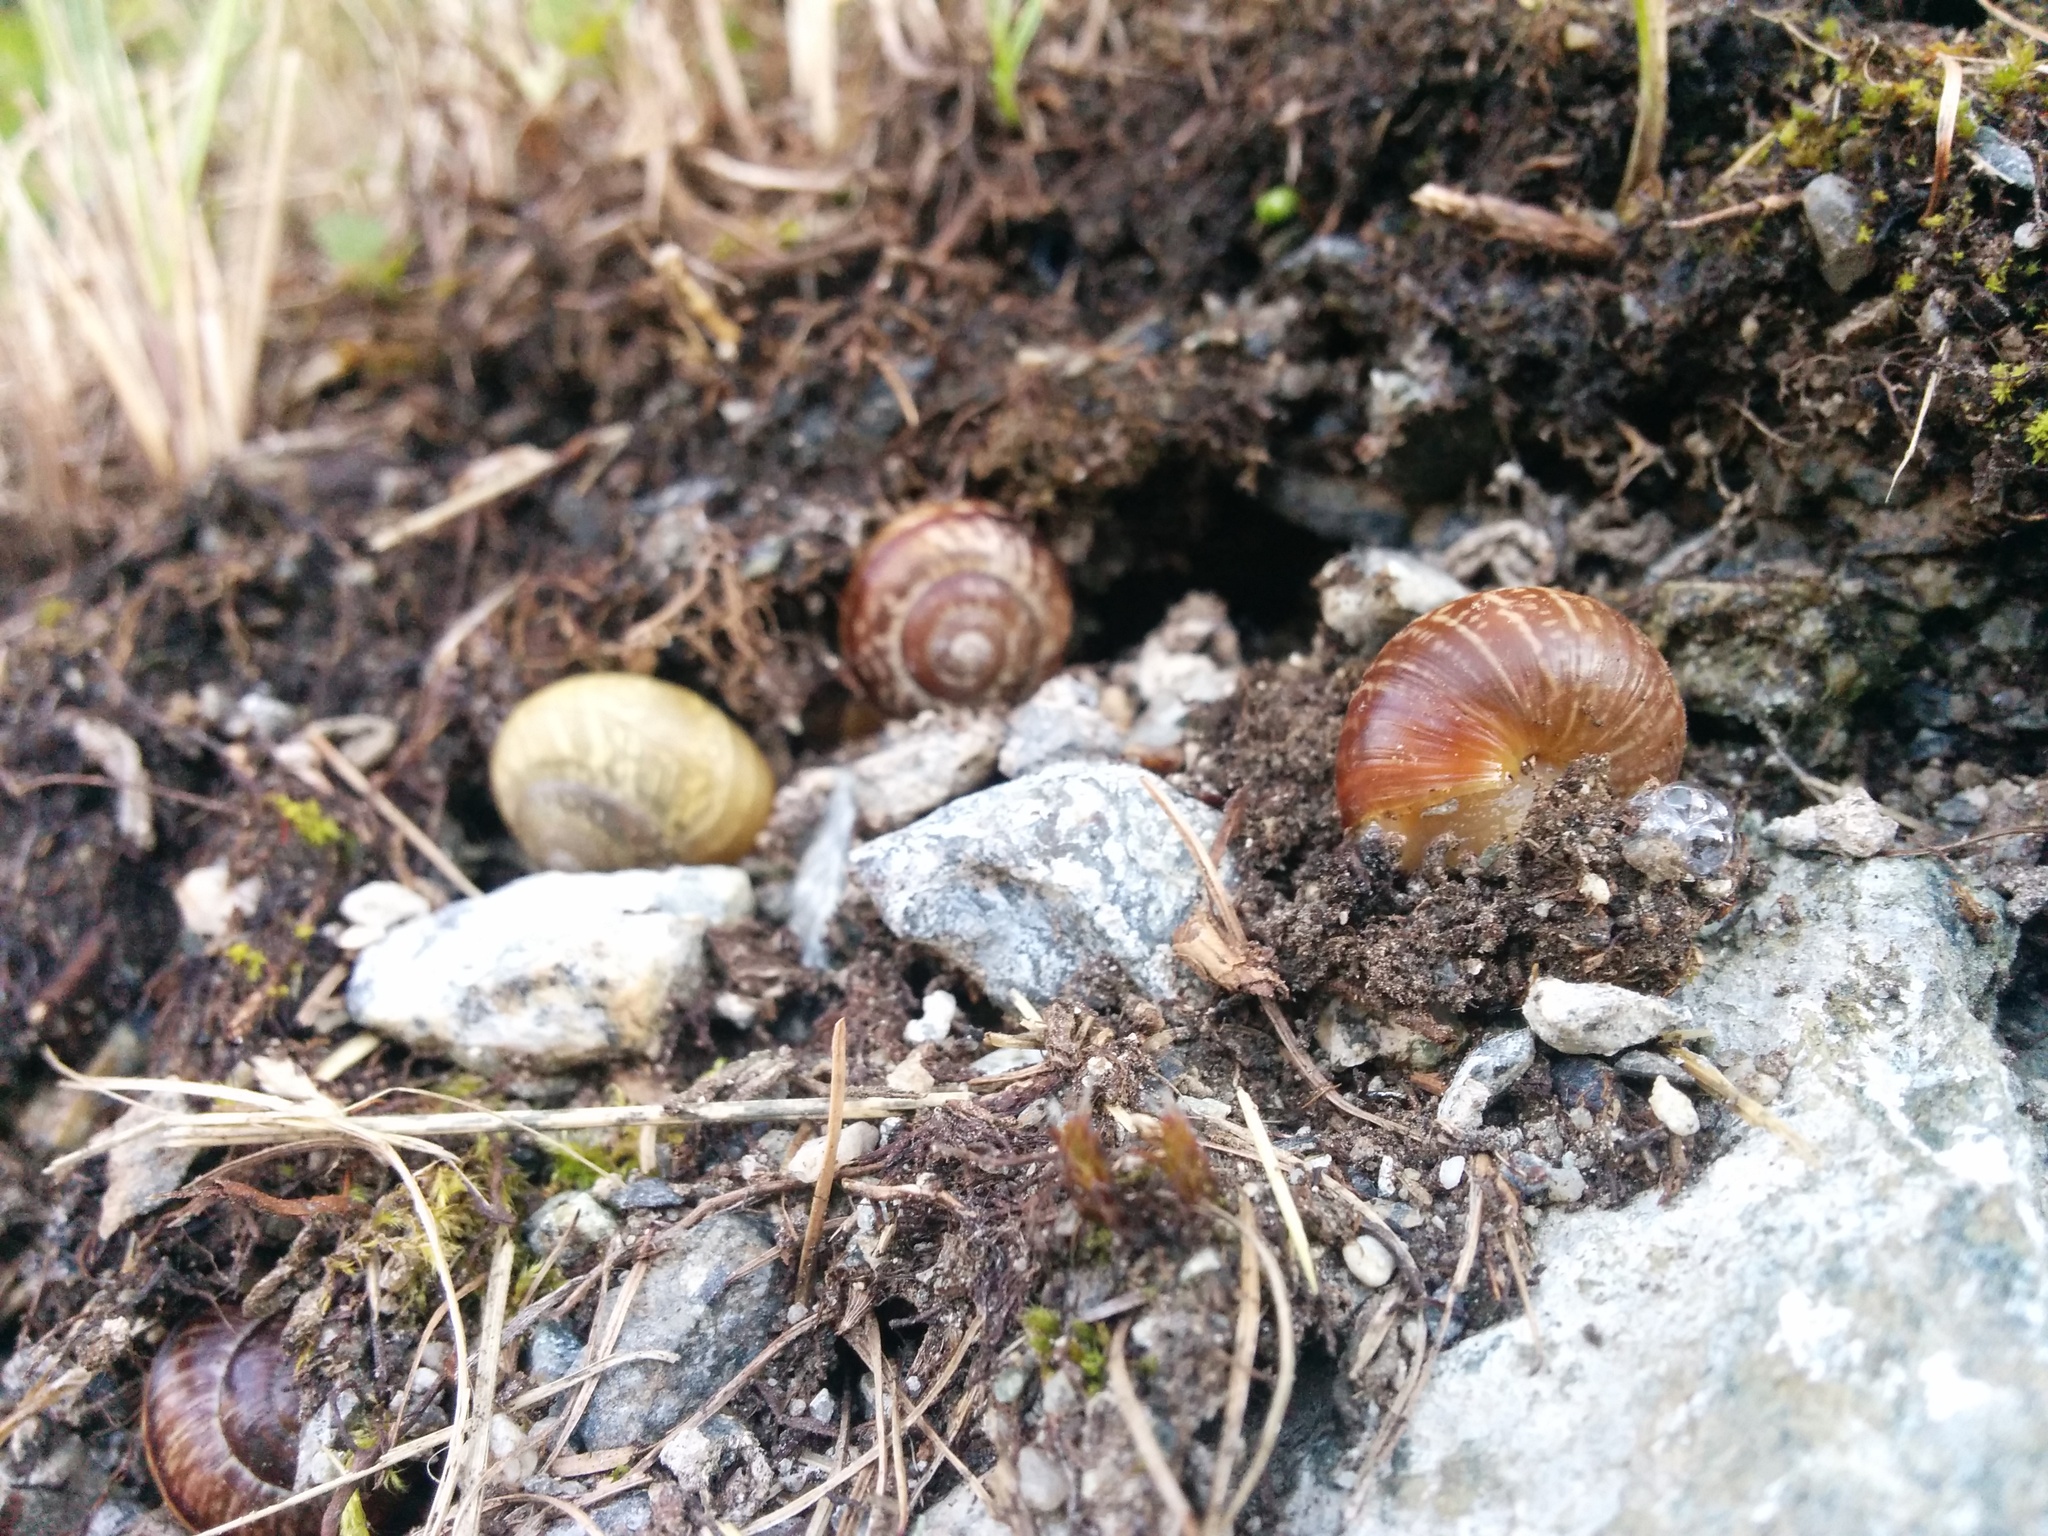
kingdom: Animalia
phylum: Mollusca
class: Gastropoda
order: Stylommatophora
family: Helicidae
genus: Arianta
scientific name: Arianta arbustorum
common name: Copse snail
